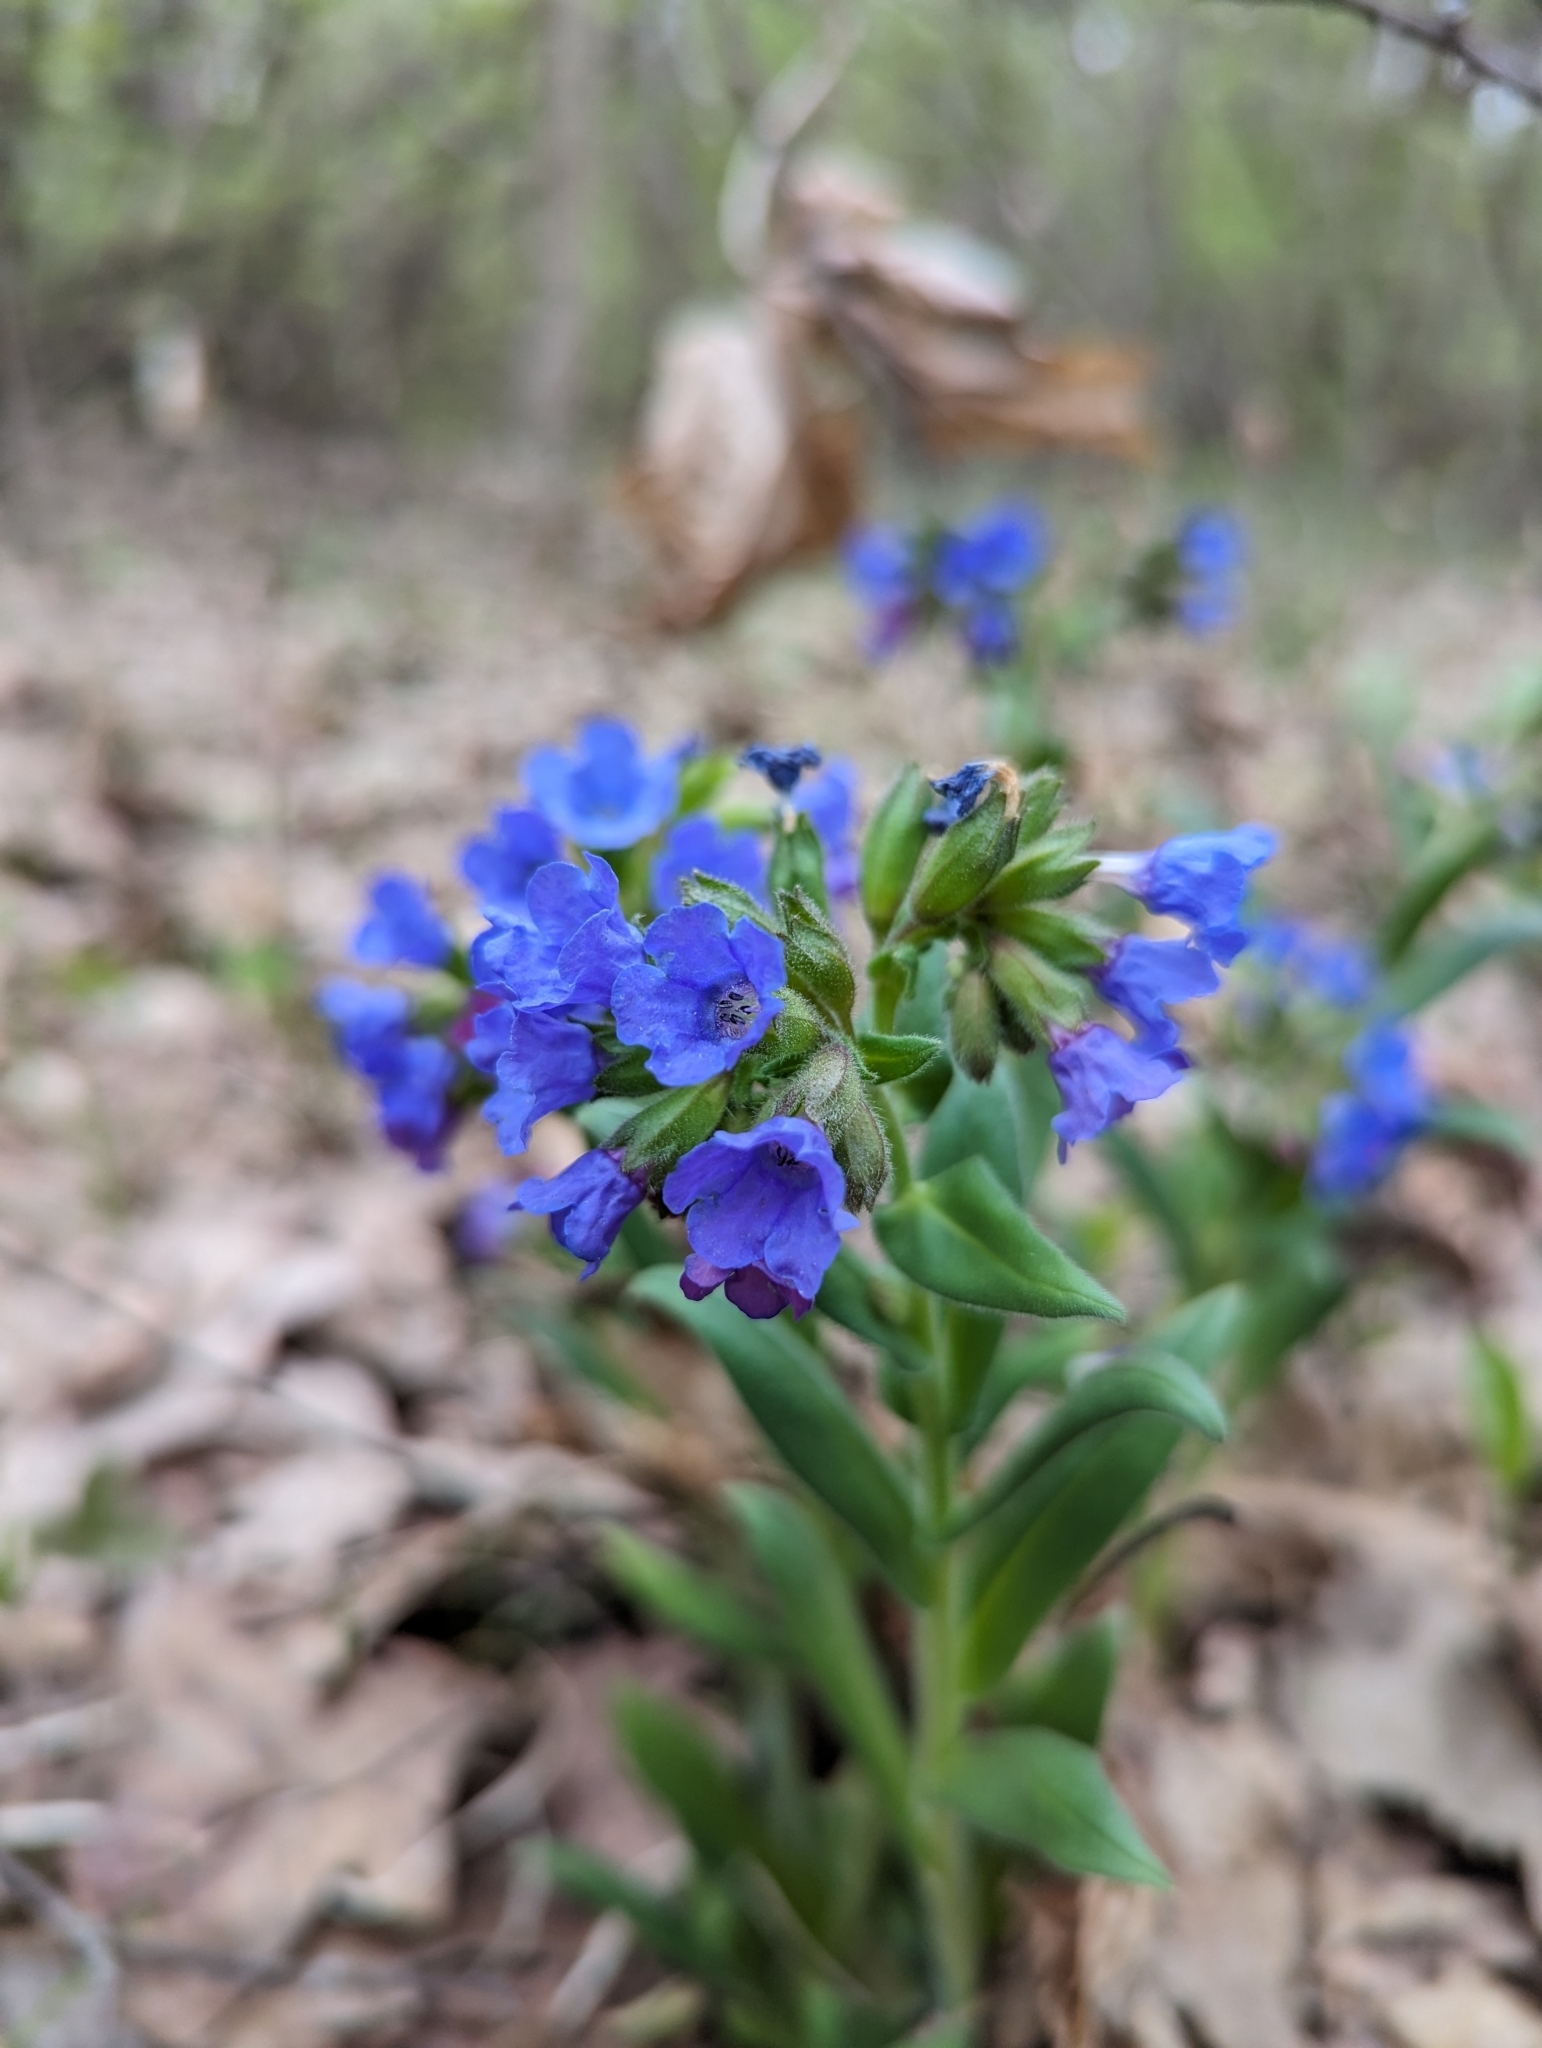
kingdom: Plantae
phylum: Tracheophyta
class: Magnoliopsida
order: Boraginales
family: Boraginaceae
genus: Pulmonaria
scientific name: Pulmonaria angustifolia
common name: Blue cowslip
